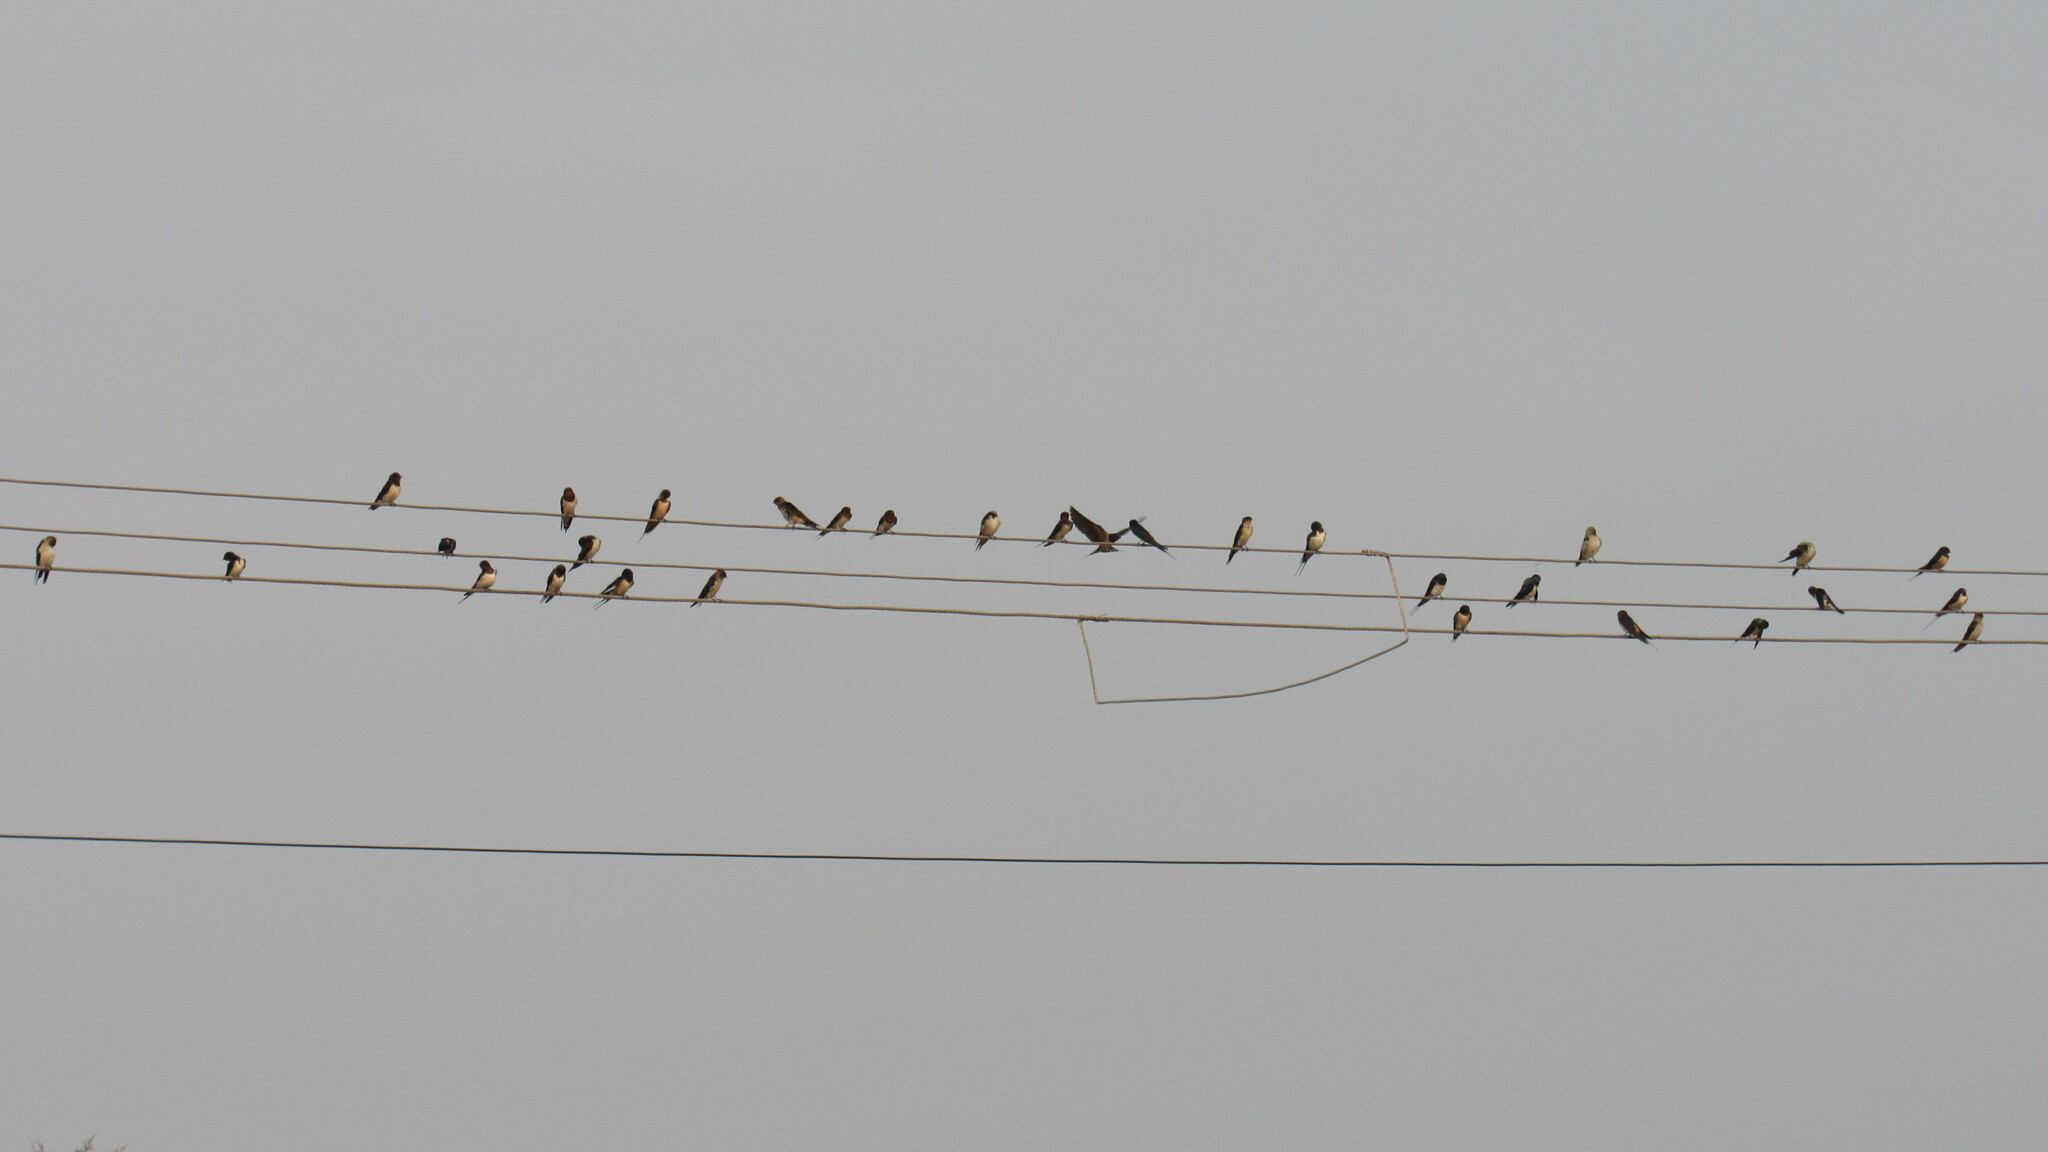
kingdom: Animalia
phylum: Chordata
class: Aves
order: Passeriformes
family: Hirundinidae
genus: Hirundo
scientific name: Hirundo rustica
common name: Barn swallow
